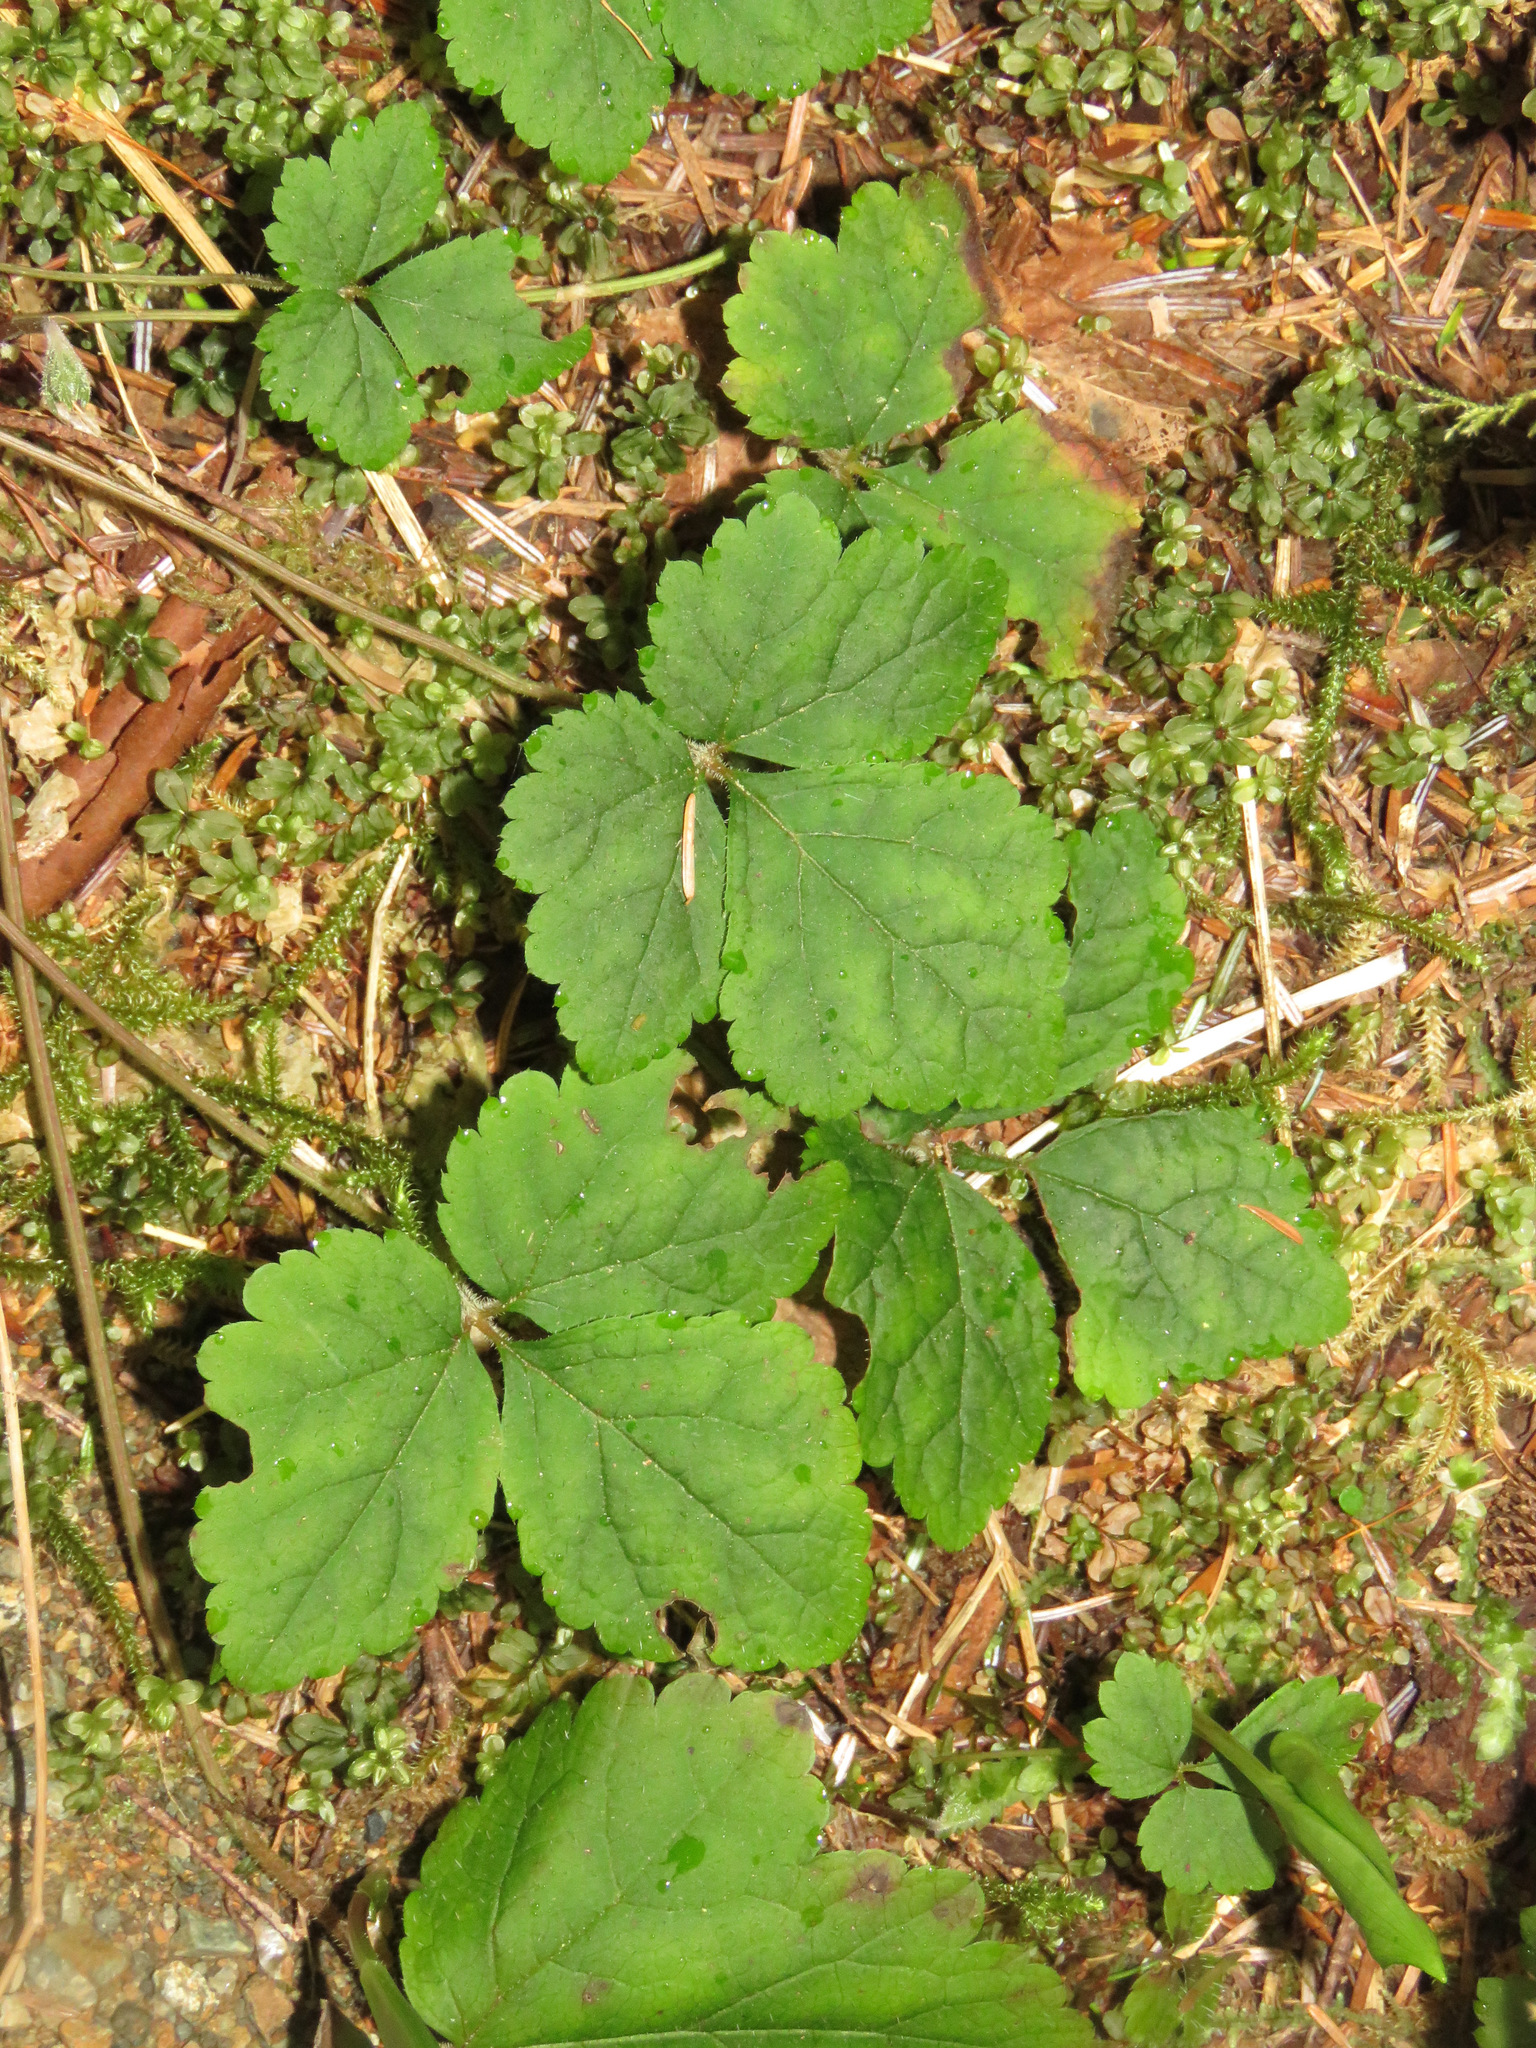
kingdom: Plantae
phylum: Tracheophyta
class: Magnoliopsida
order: Saxifragales
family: Saxifragaceae
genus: Tiarella
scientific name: Tiarella trifoliata
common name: Sugar-scoop
